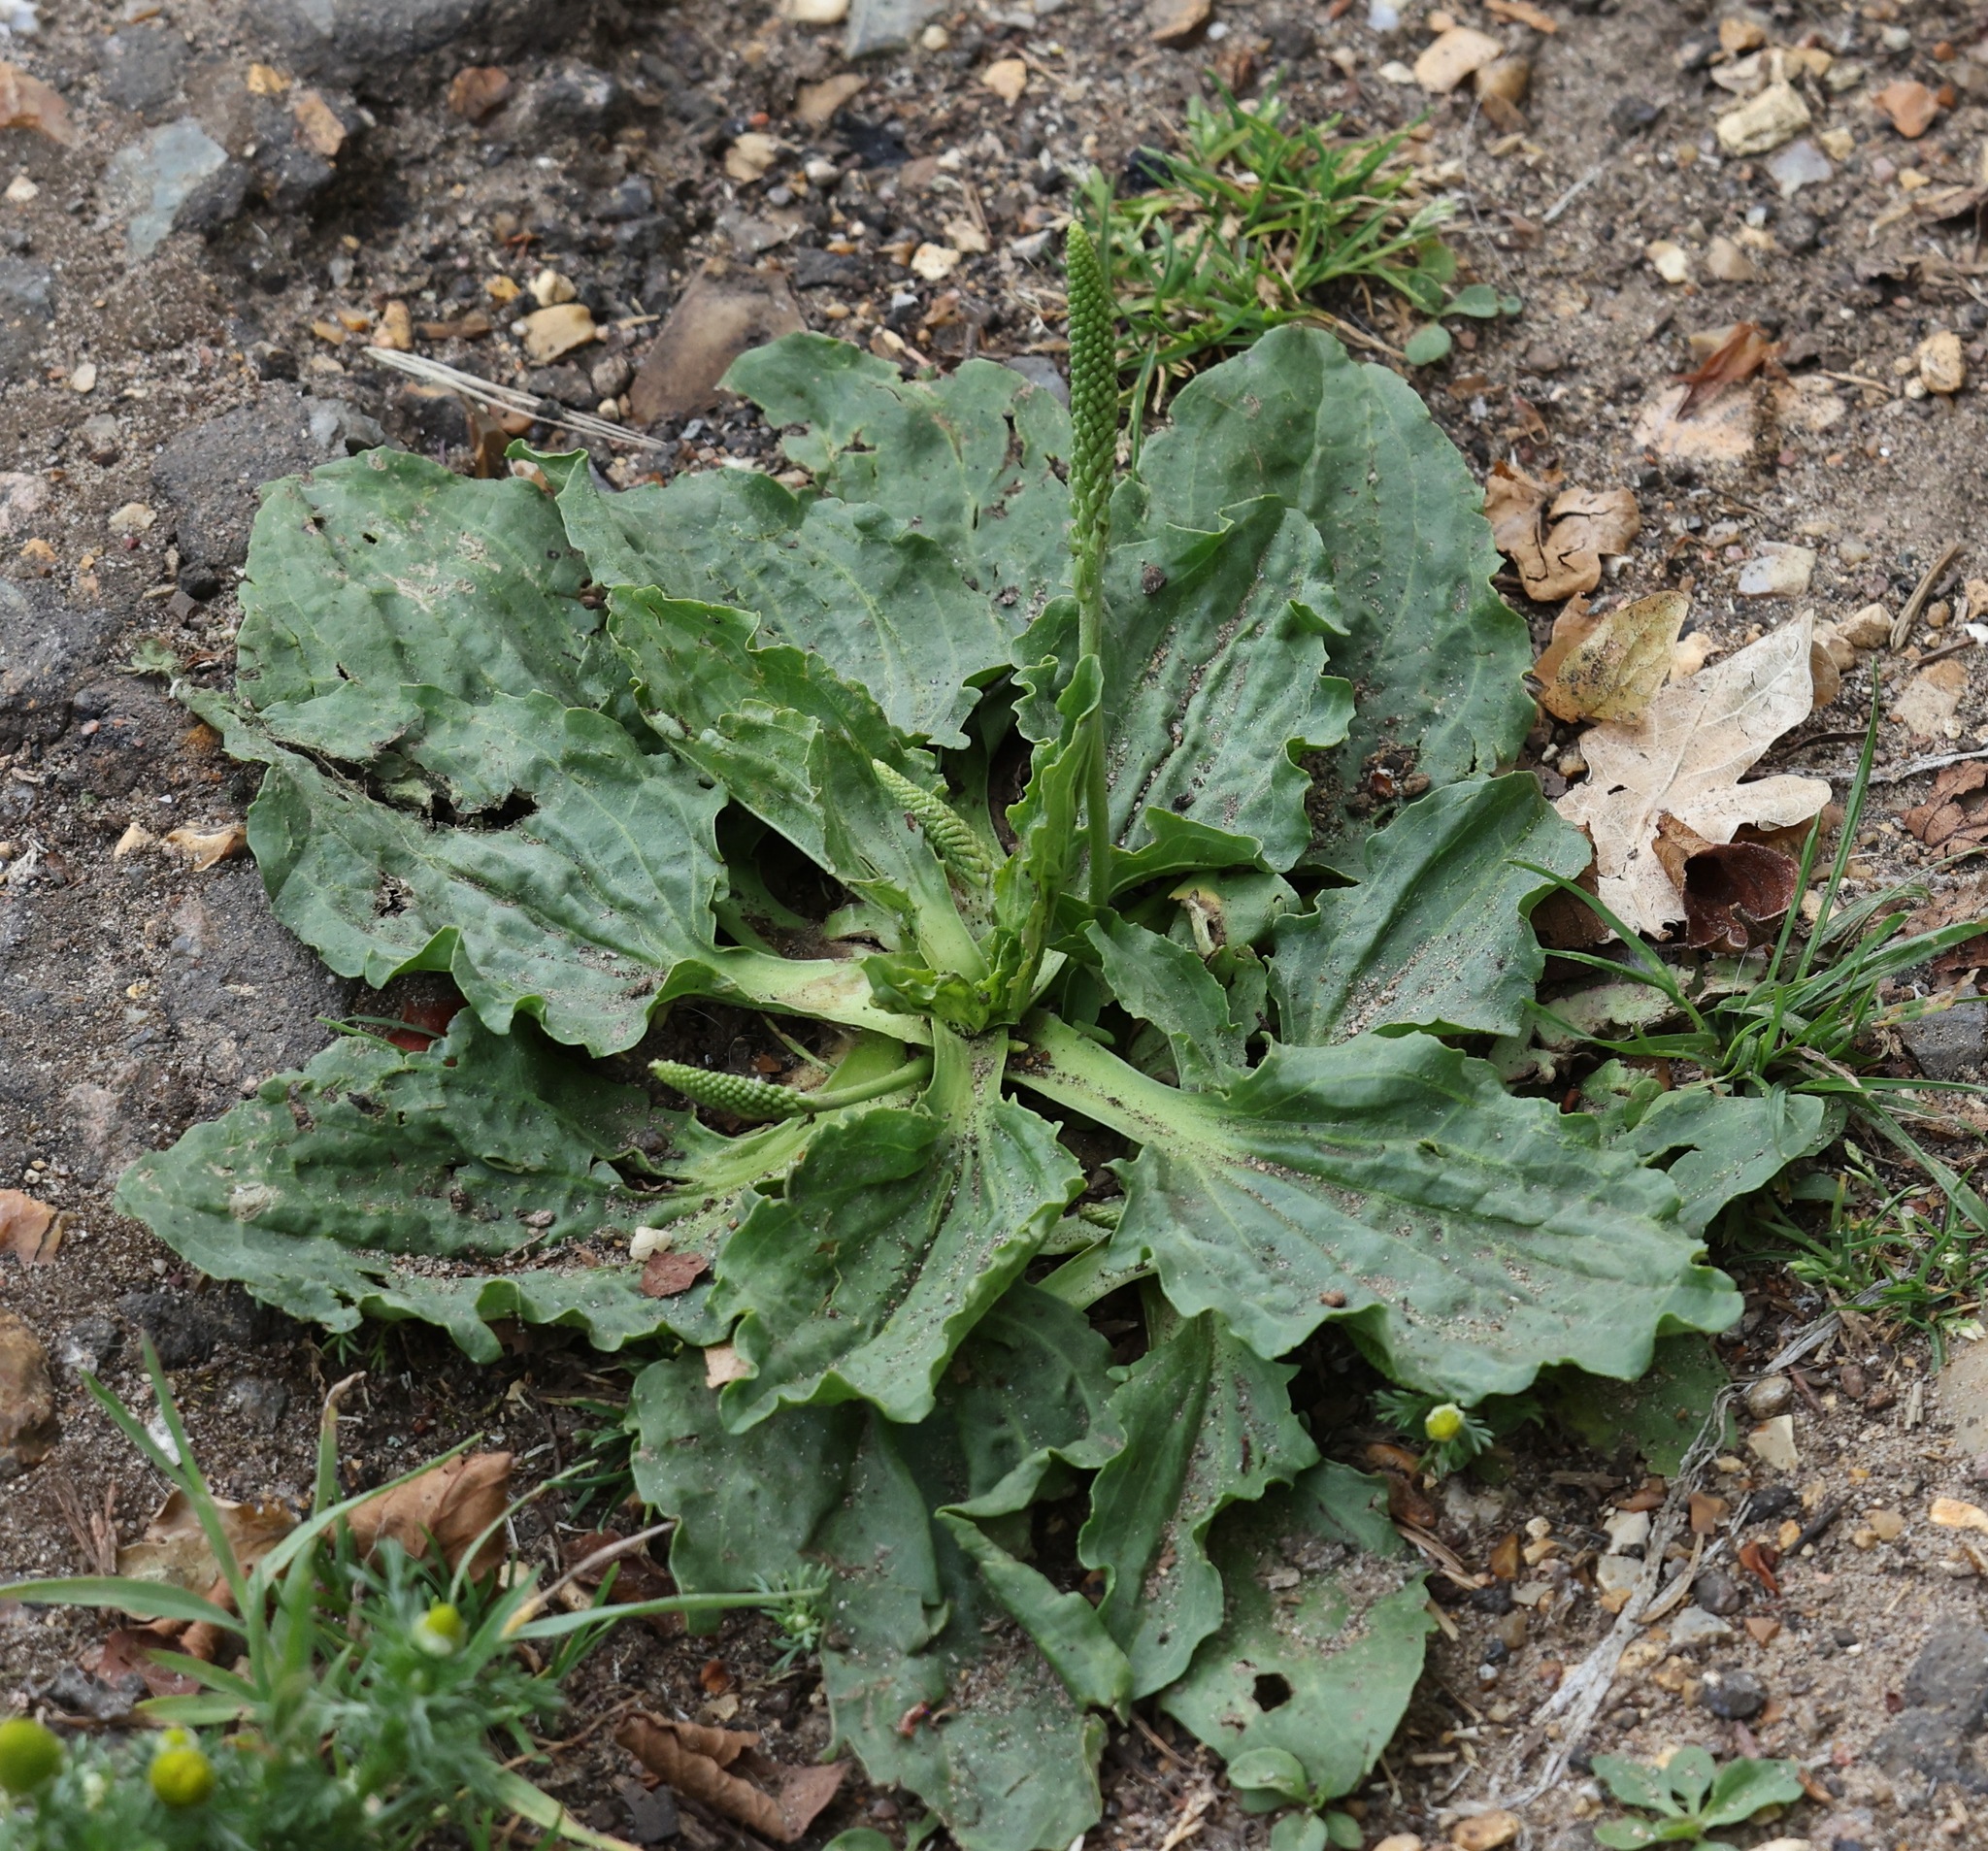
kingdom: Plantae
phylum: Tracheophyta
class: Magnoliopsida
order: Lamiales
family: Plantaginaceae
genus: Plantago
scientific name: Plantago major
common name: Common plantain
